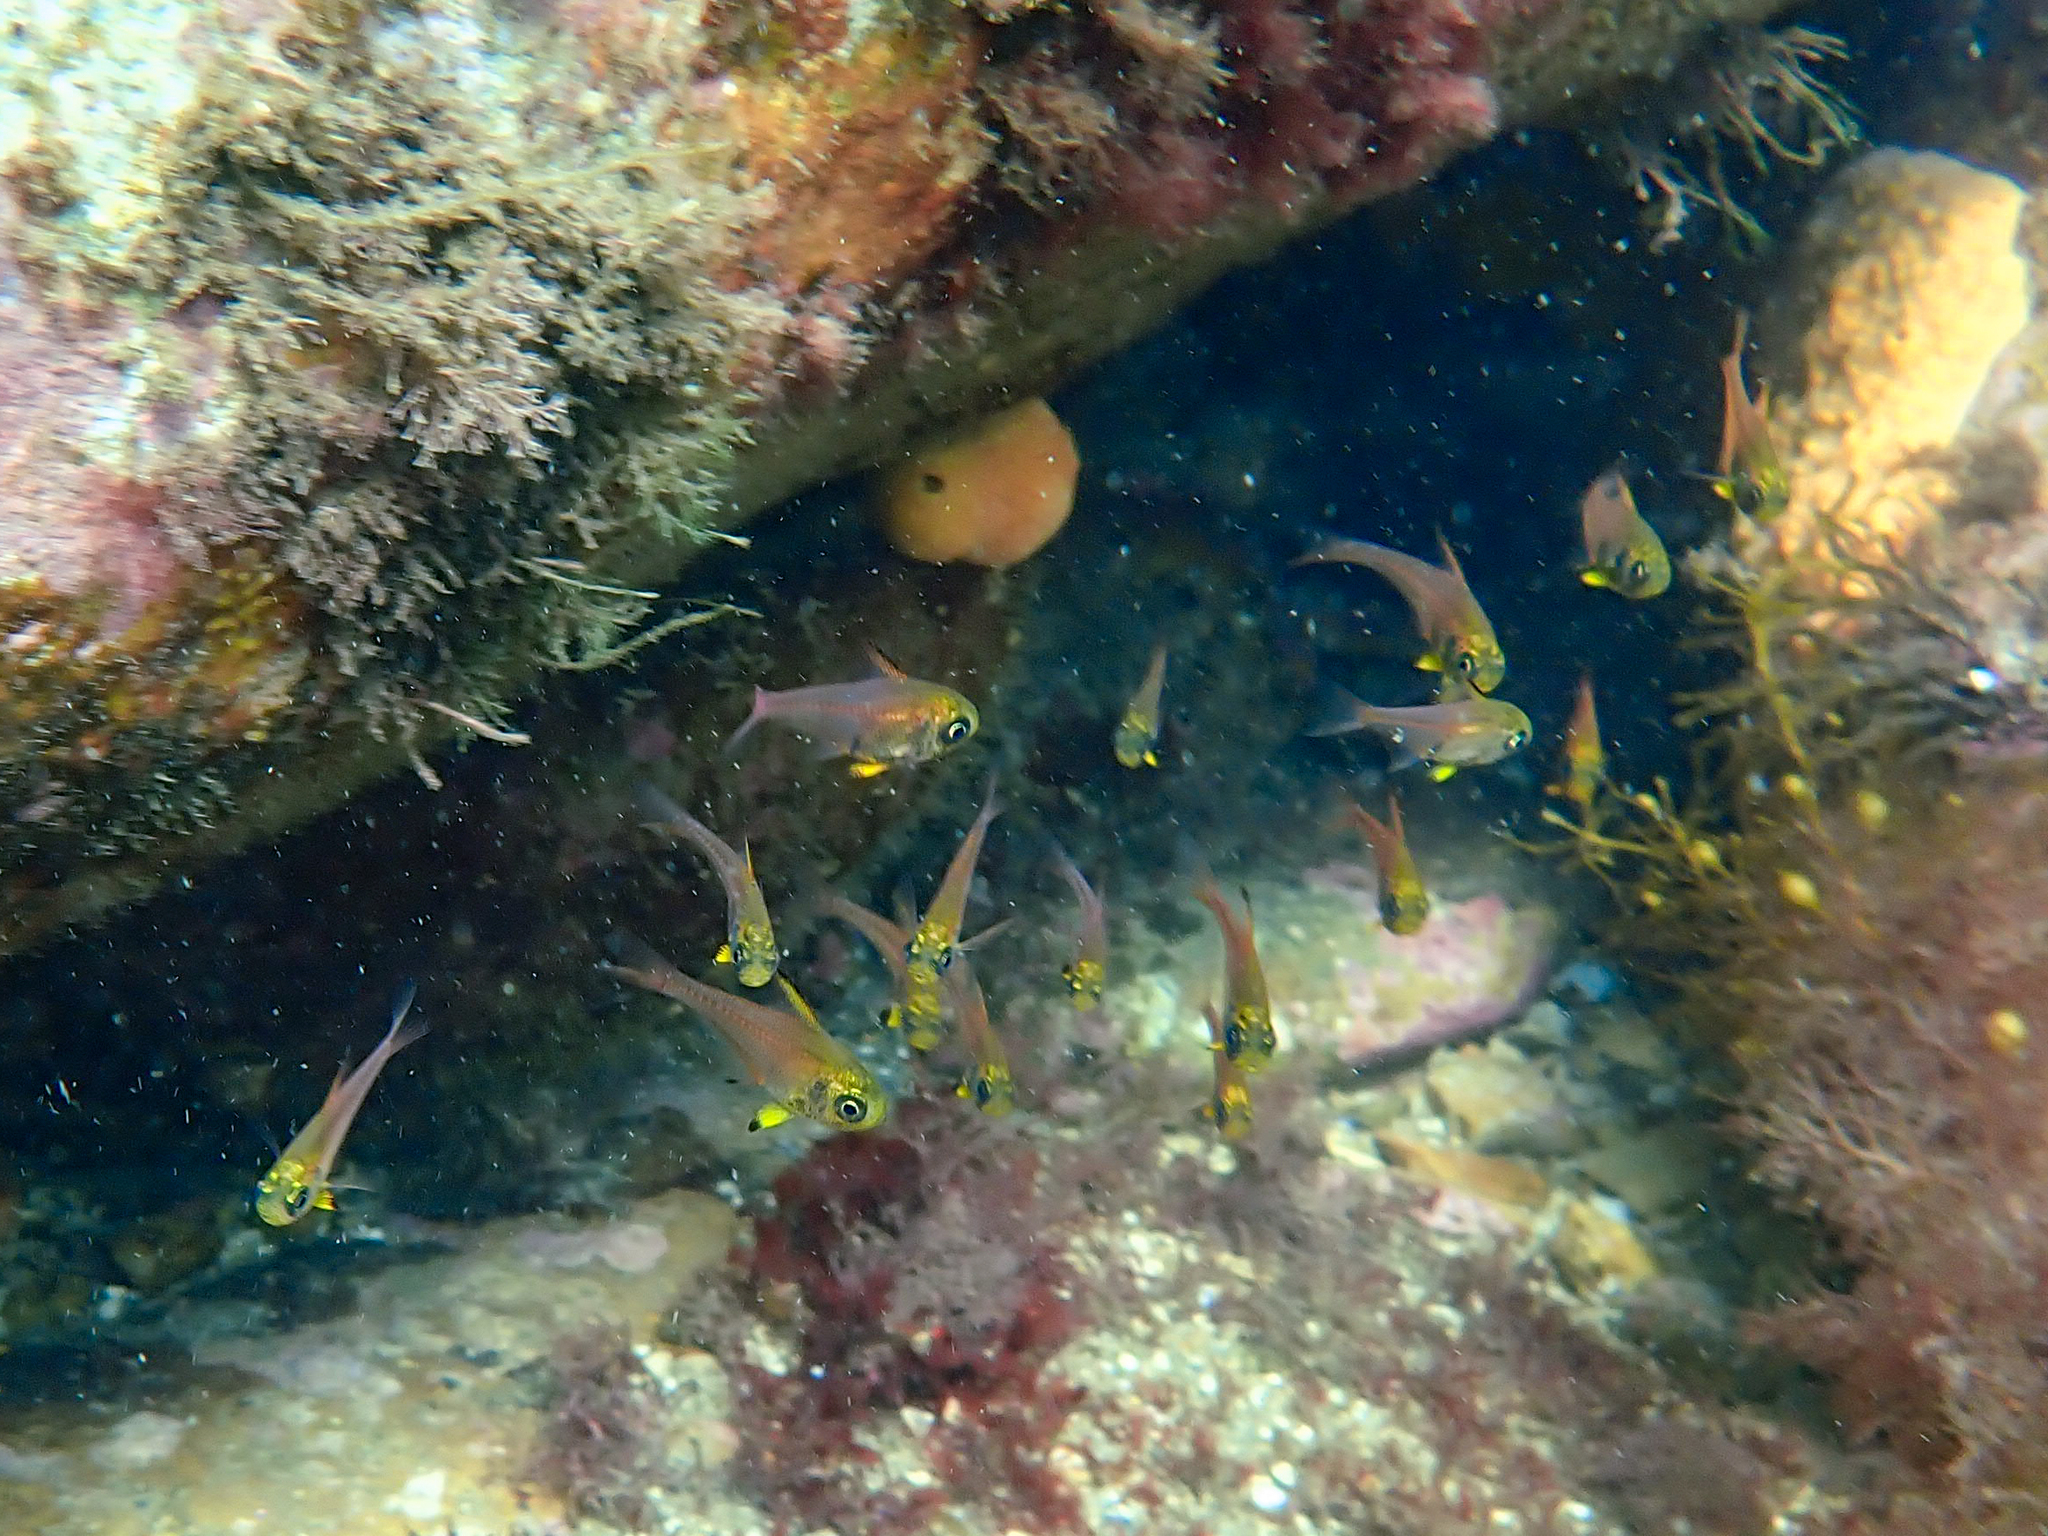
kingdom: Animalia
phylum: Chordata
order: Perciformes
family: Pempheridae
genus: Pempheris
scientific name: Pempheris multiradiata
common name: Big-scaled bullseye
